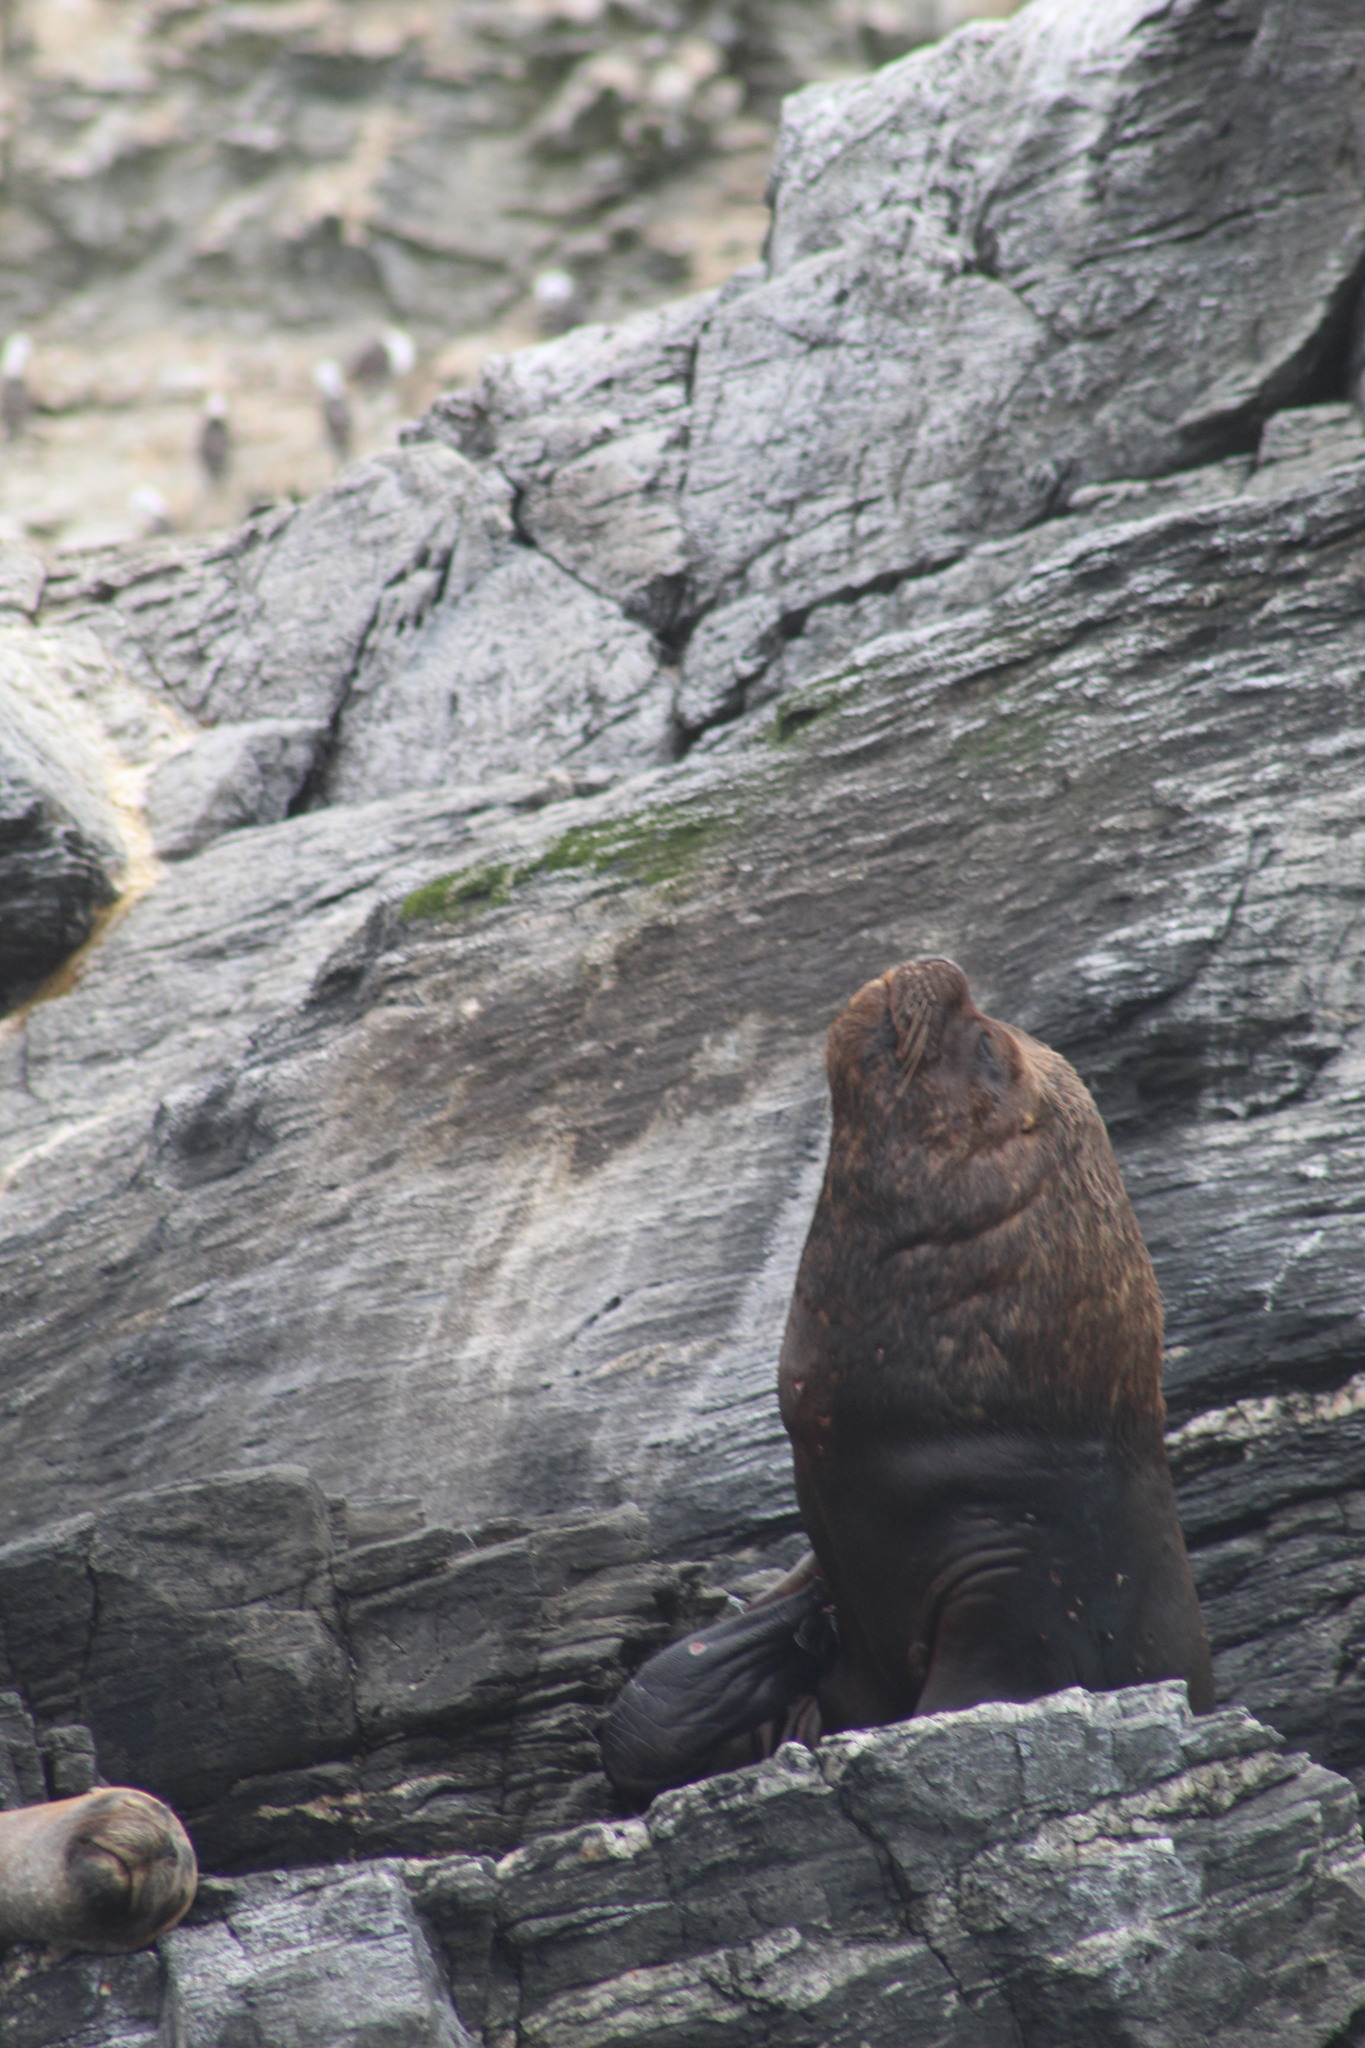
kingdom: Animalia
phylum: Chordata
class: Mammalia
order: Carnivora
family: Otariidae
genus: Otaria
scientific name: Otaria byronia
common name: South american sea lion
